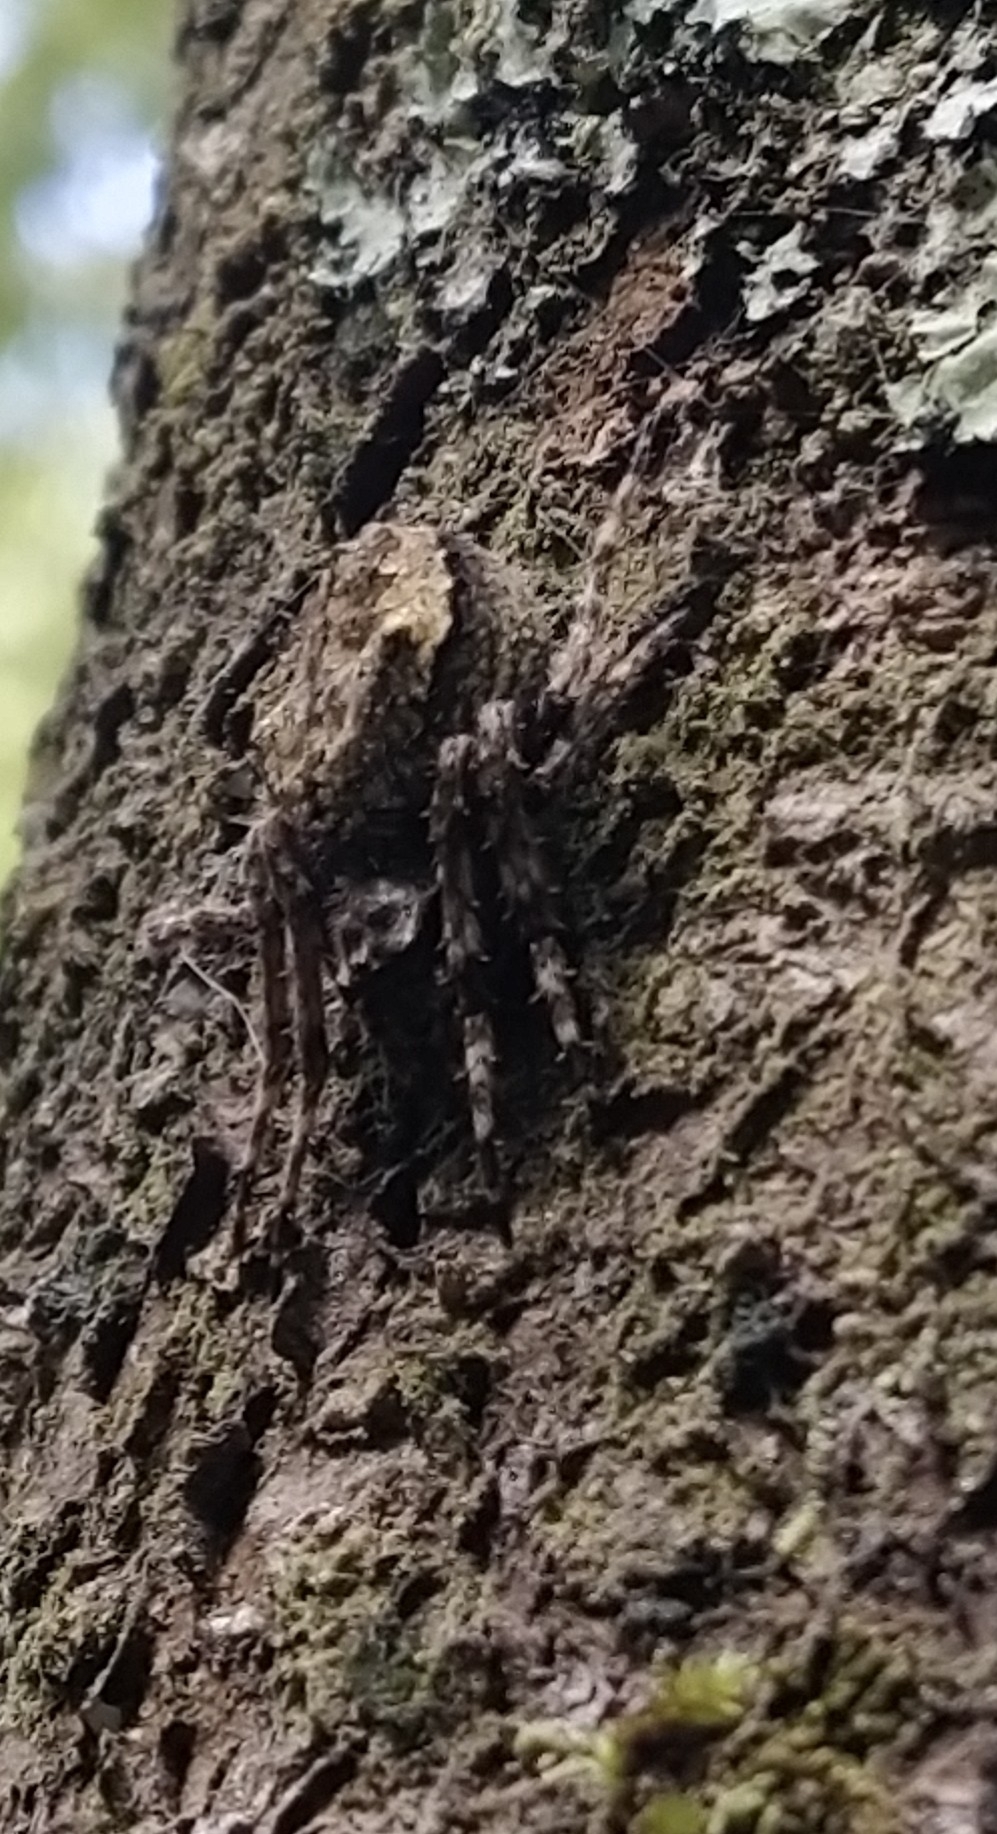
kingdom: Animalia
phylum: Arthropoda
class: Arachnida
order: Araneae
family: Araneidae
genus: Eriophora
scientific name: Eriophora pustulosa
